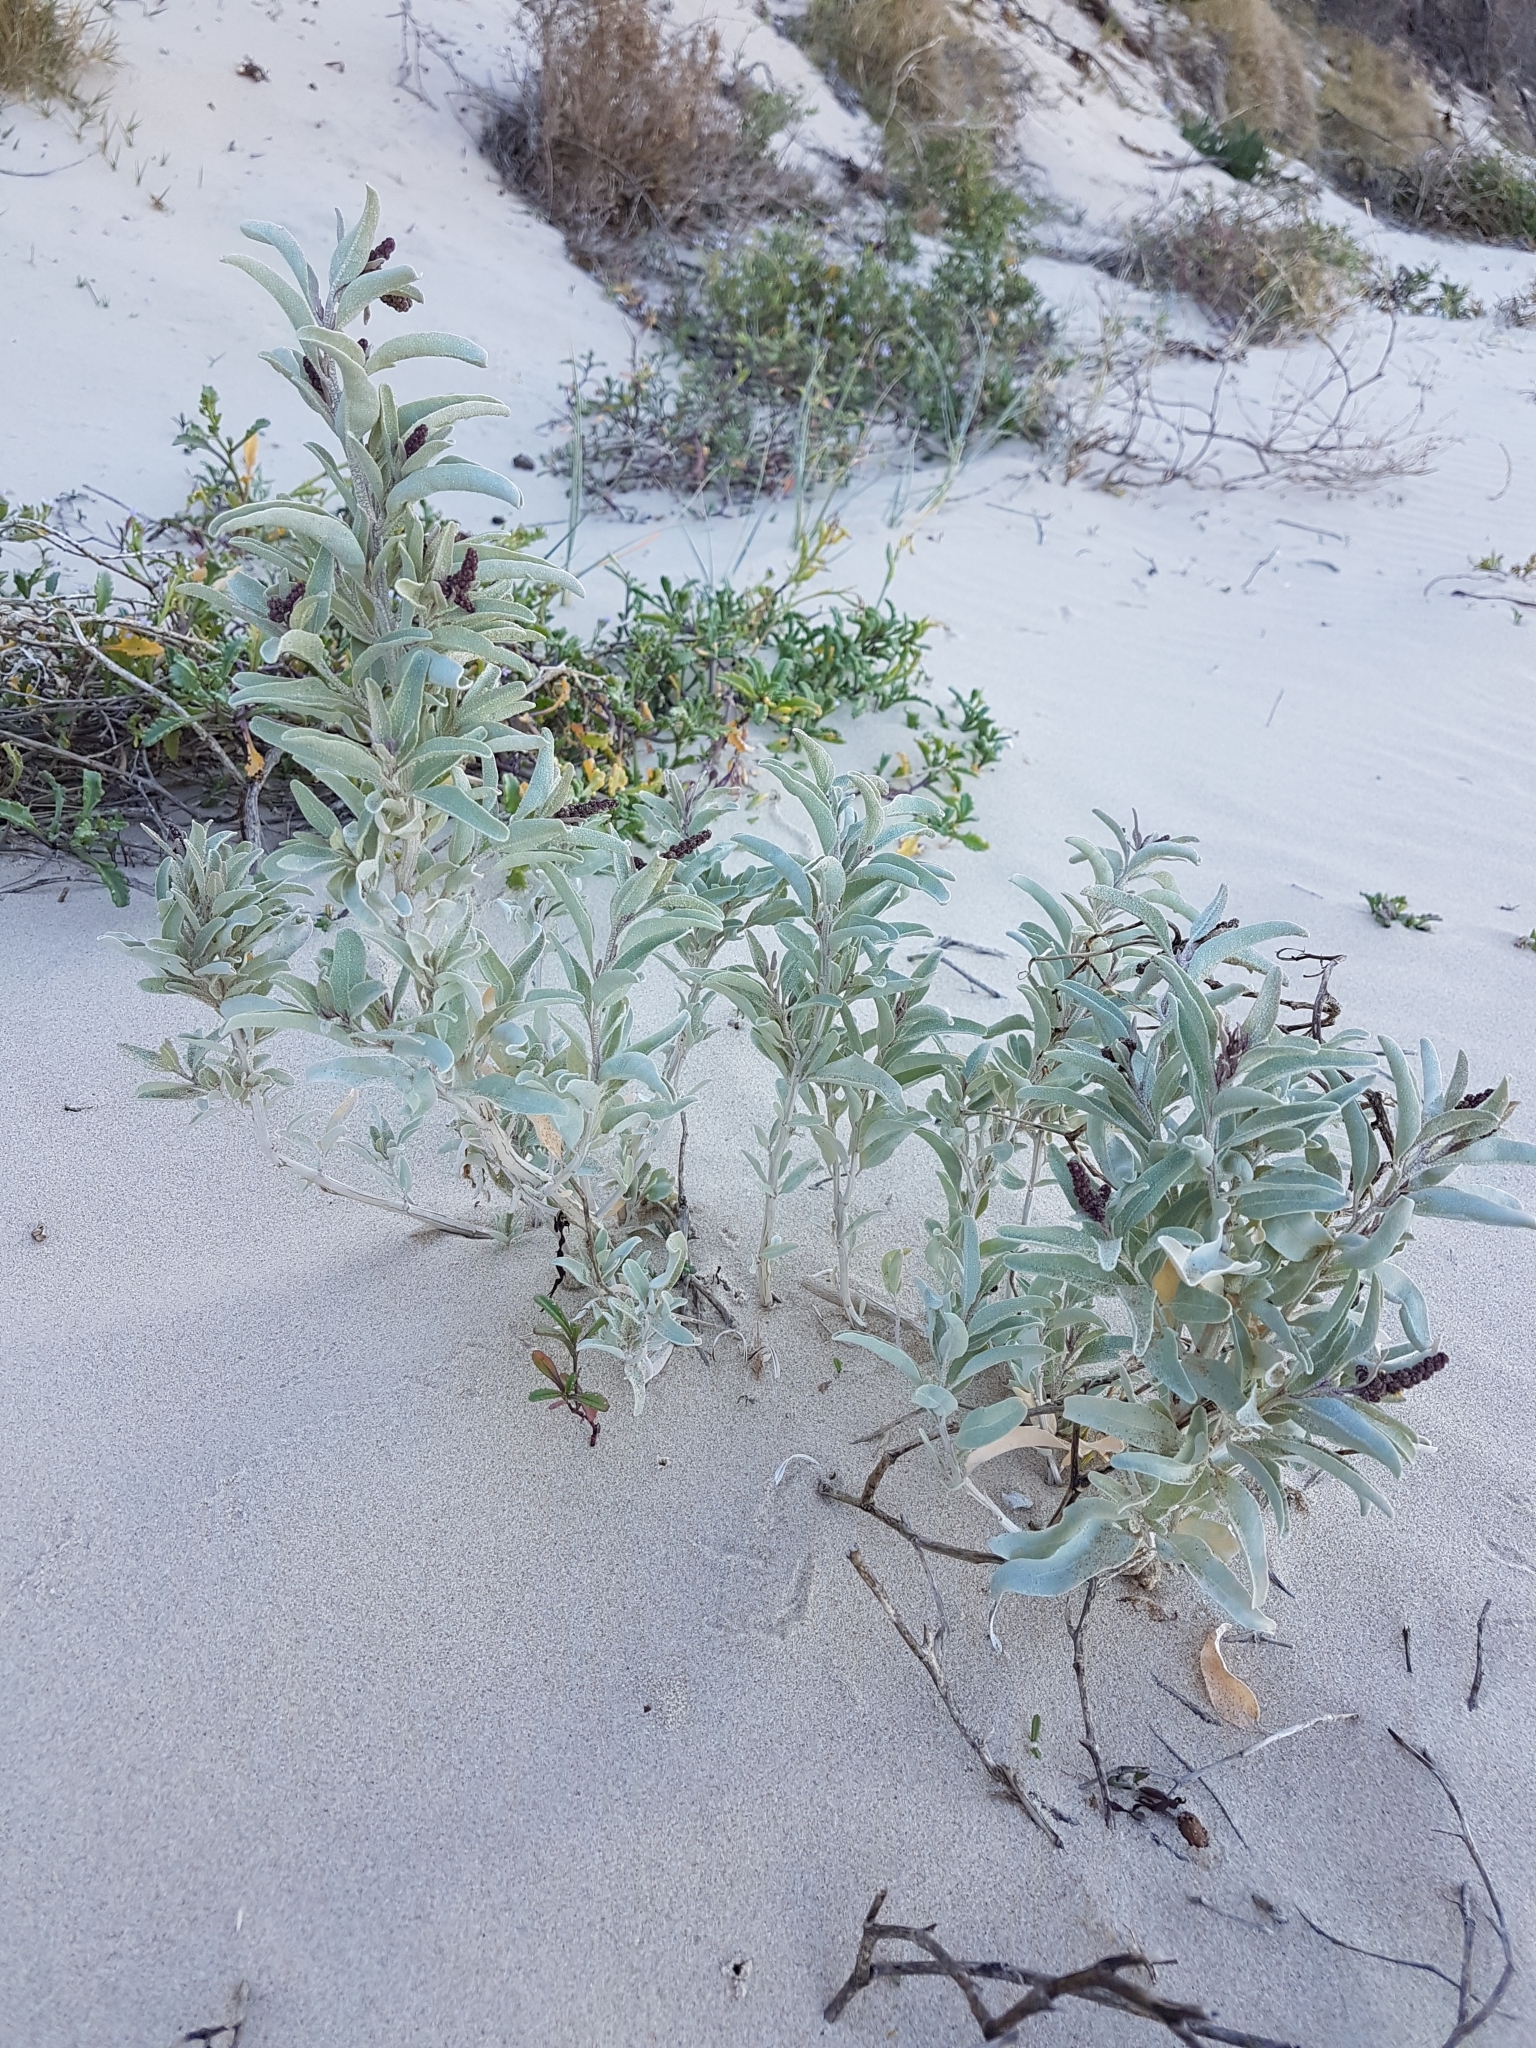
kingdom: Plantae
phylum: Tracheophyta
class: Magnoliopsida
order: Caryophyllales
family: Amaranthaceae
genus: Atriplex
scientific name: Atriplex cinerea
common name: Grey saltbush
